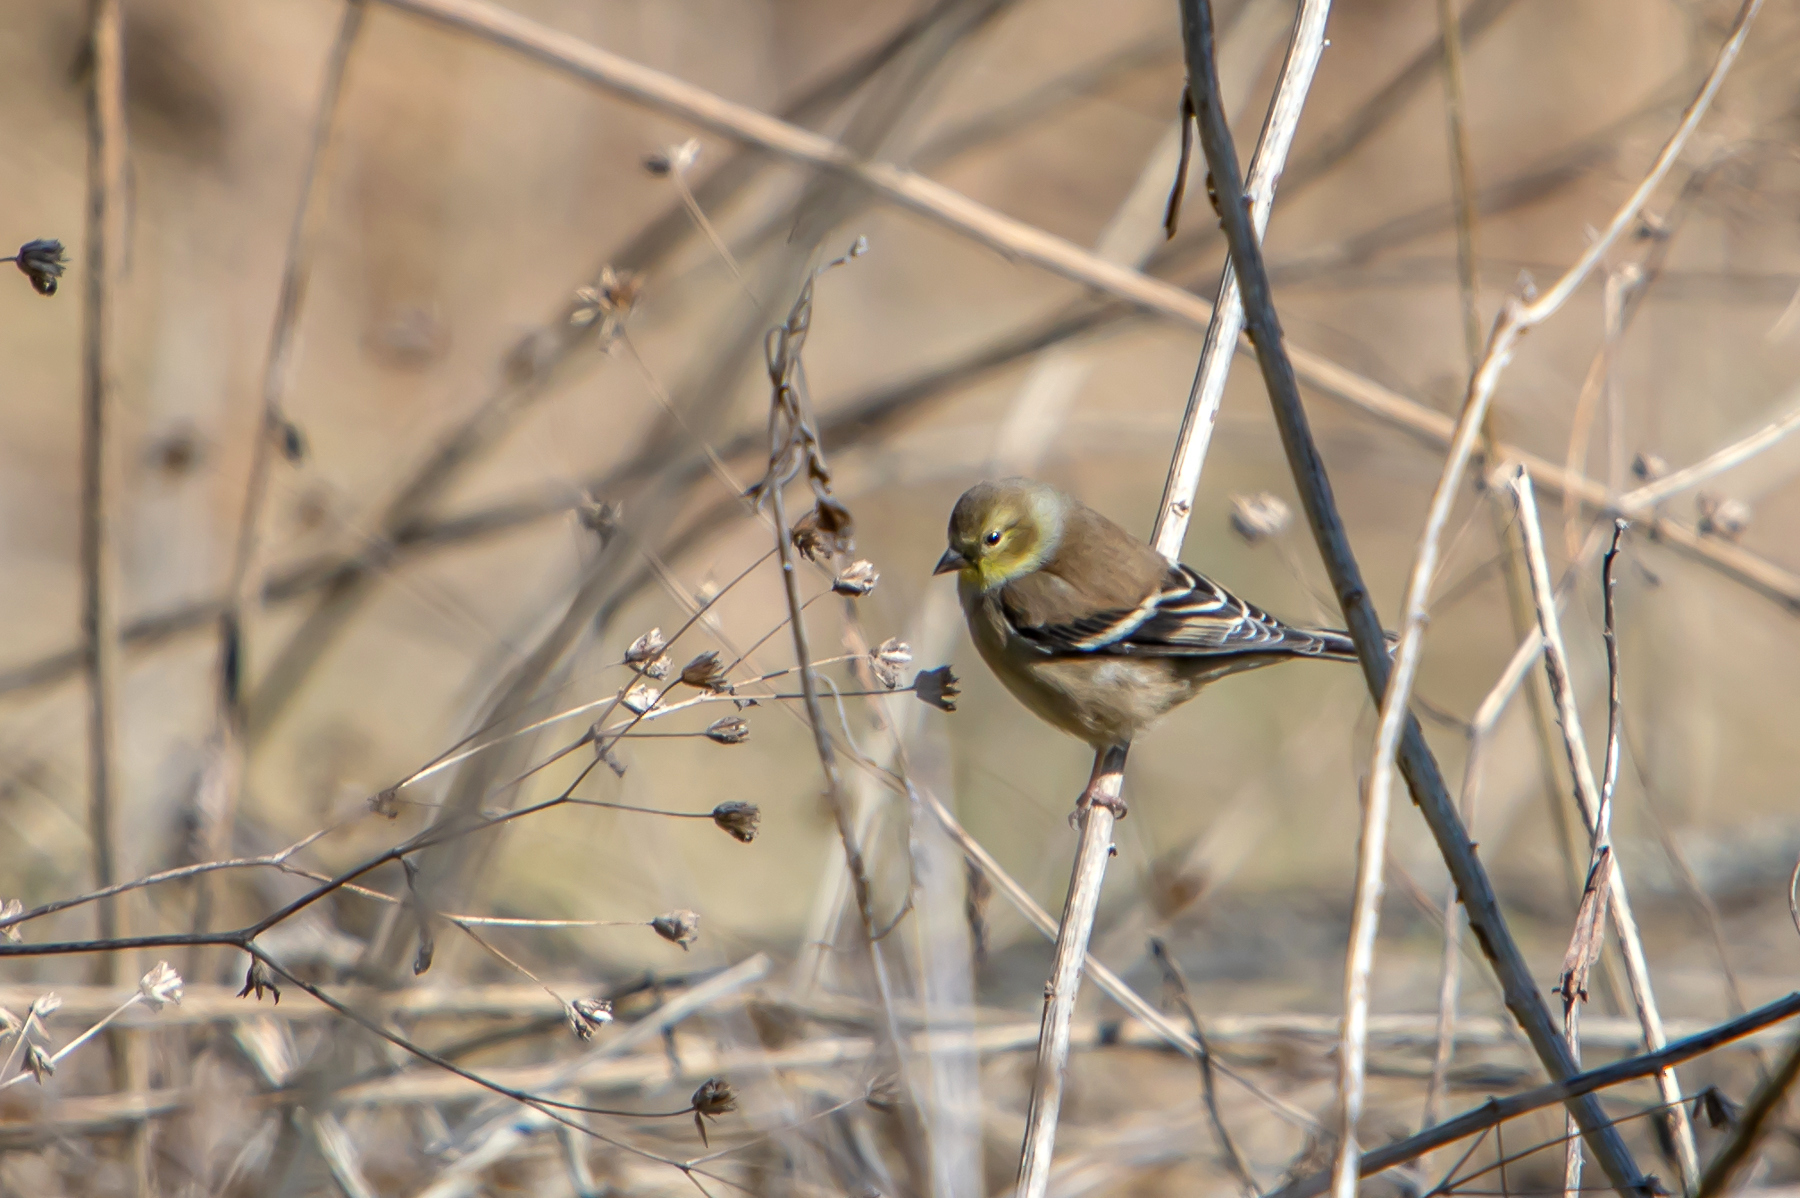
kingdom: Animalia
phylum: Chordata
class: Aves
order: Passeriformes
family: Fringillidae
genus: Spinus
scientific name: Spinus tristis
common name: American goldfinch
